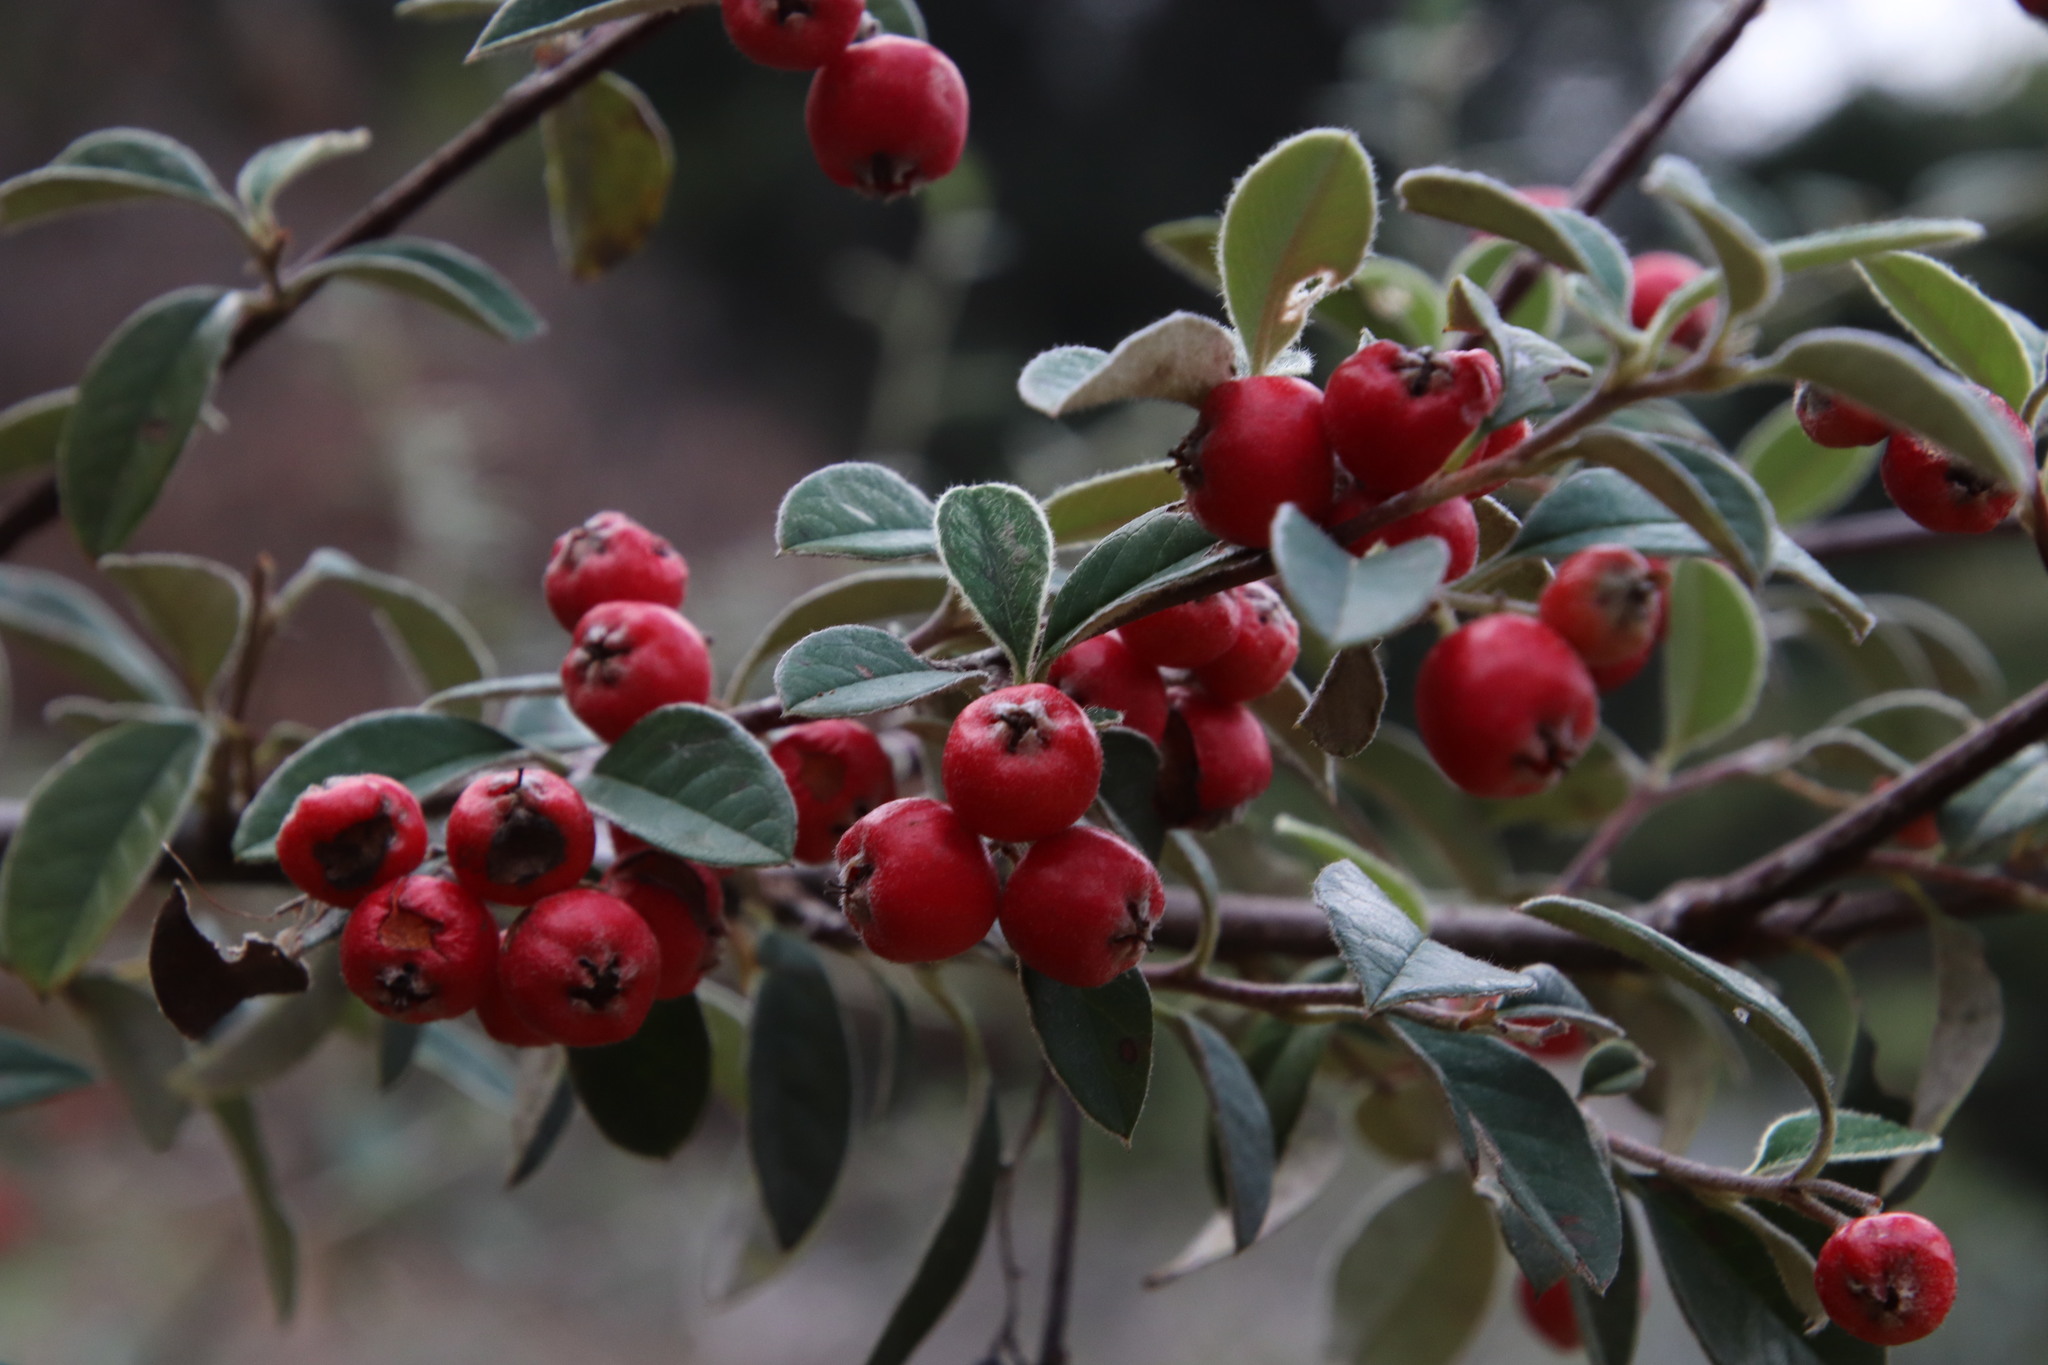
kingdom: Plantae
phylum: Tracheophyta
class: Magnoliopsida
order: Rosales
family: Rosaceae
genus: Cotoneaster
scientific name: Cotoneaster coriaceus
